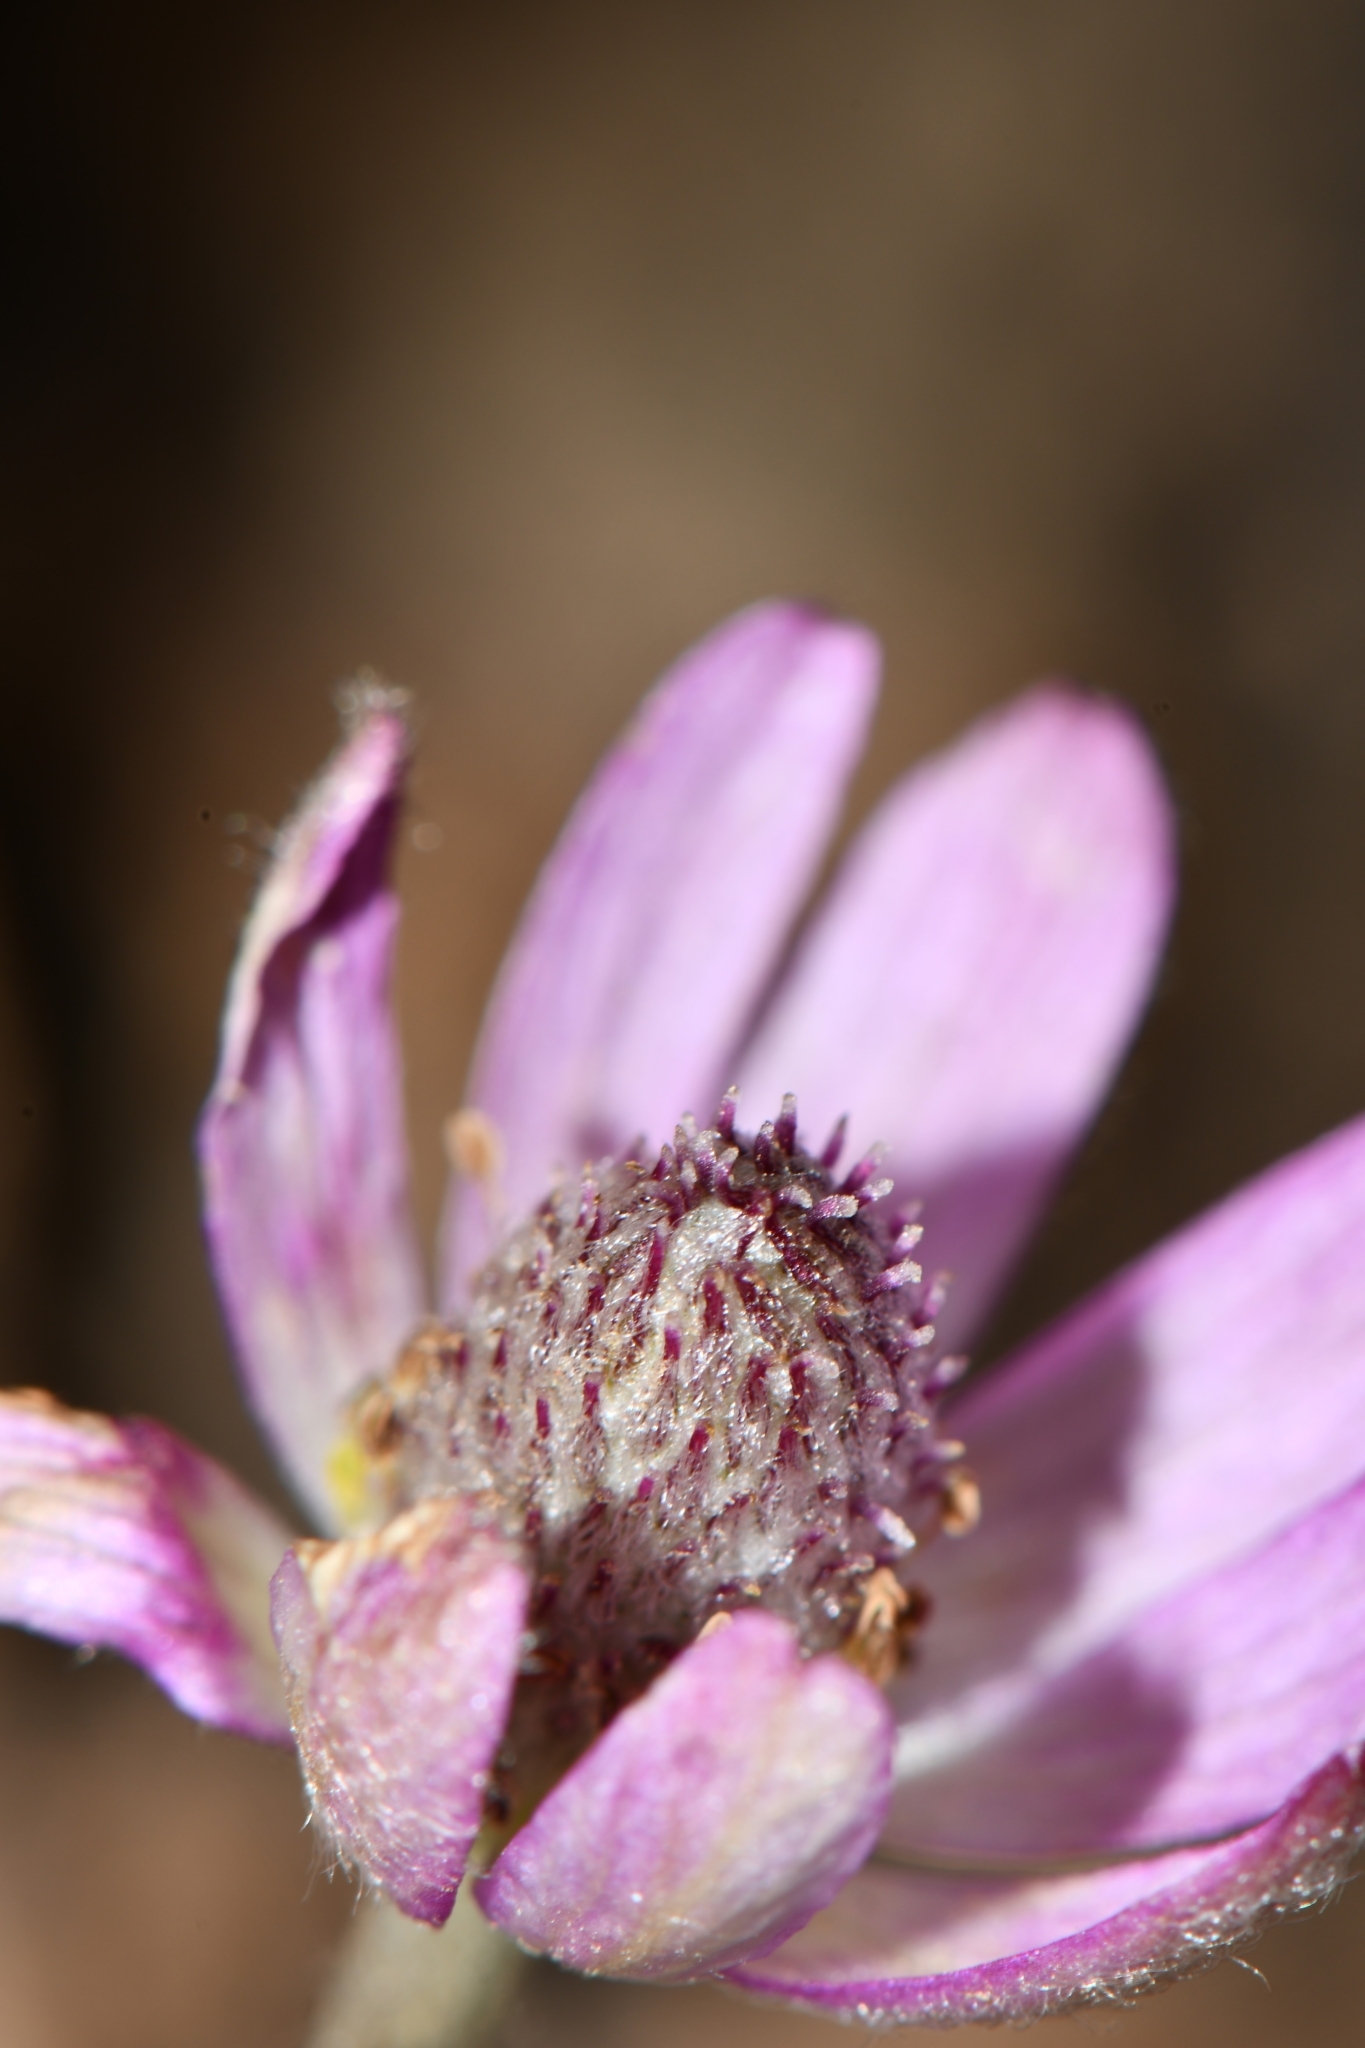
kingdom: Plantae
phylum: Tracheophyta
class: Magnoliopsida
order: Ranunculales
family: Ranunculaceae
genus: Anemone
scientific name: Anemone tuberosa
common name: Desert anemone
